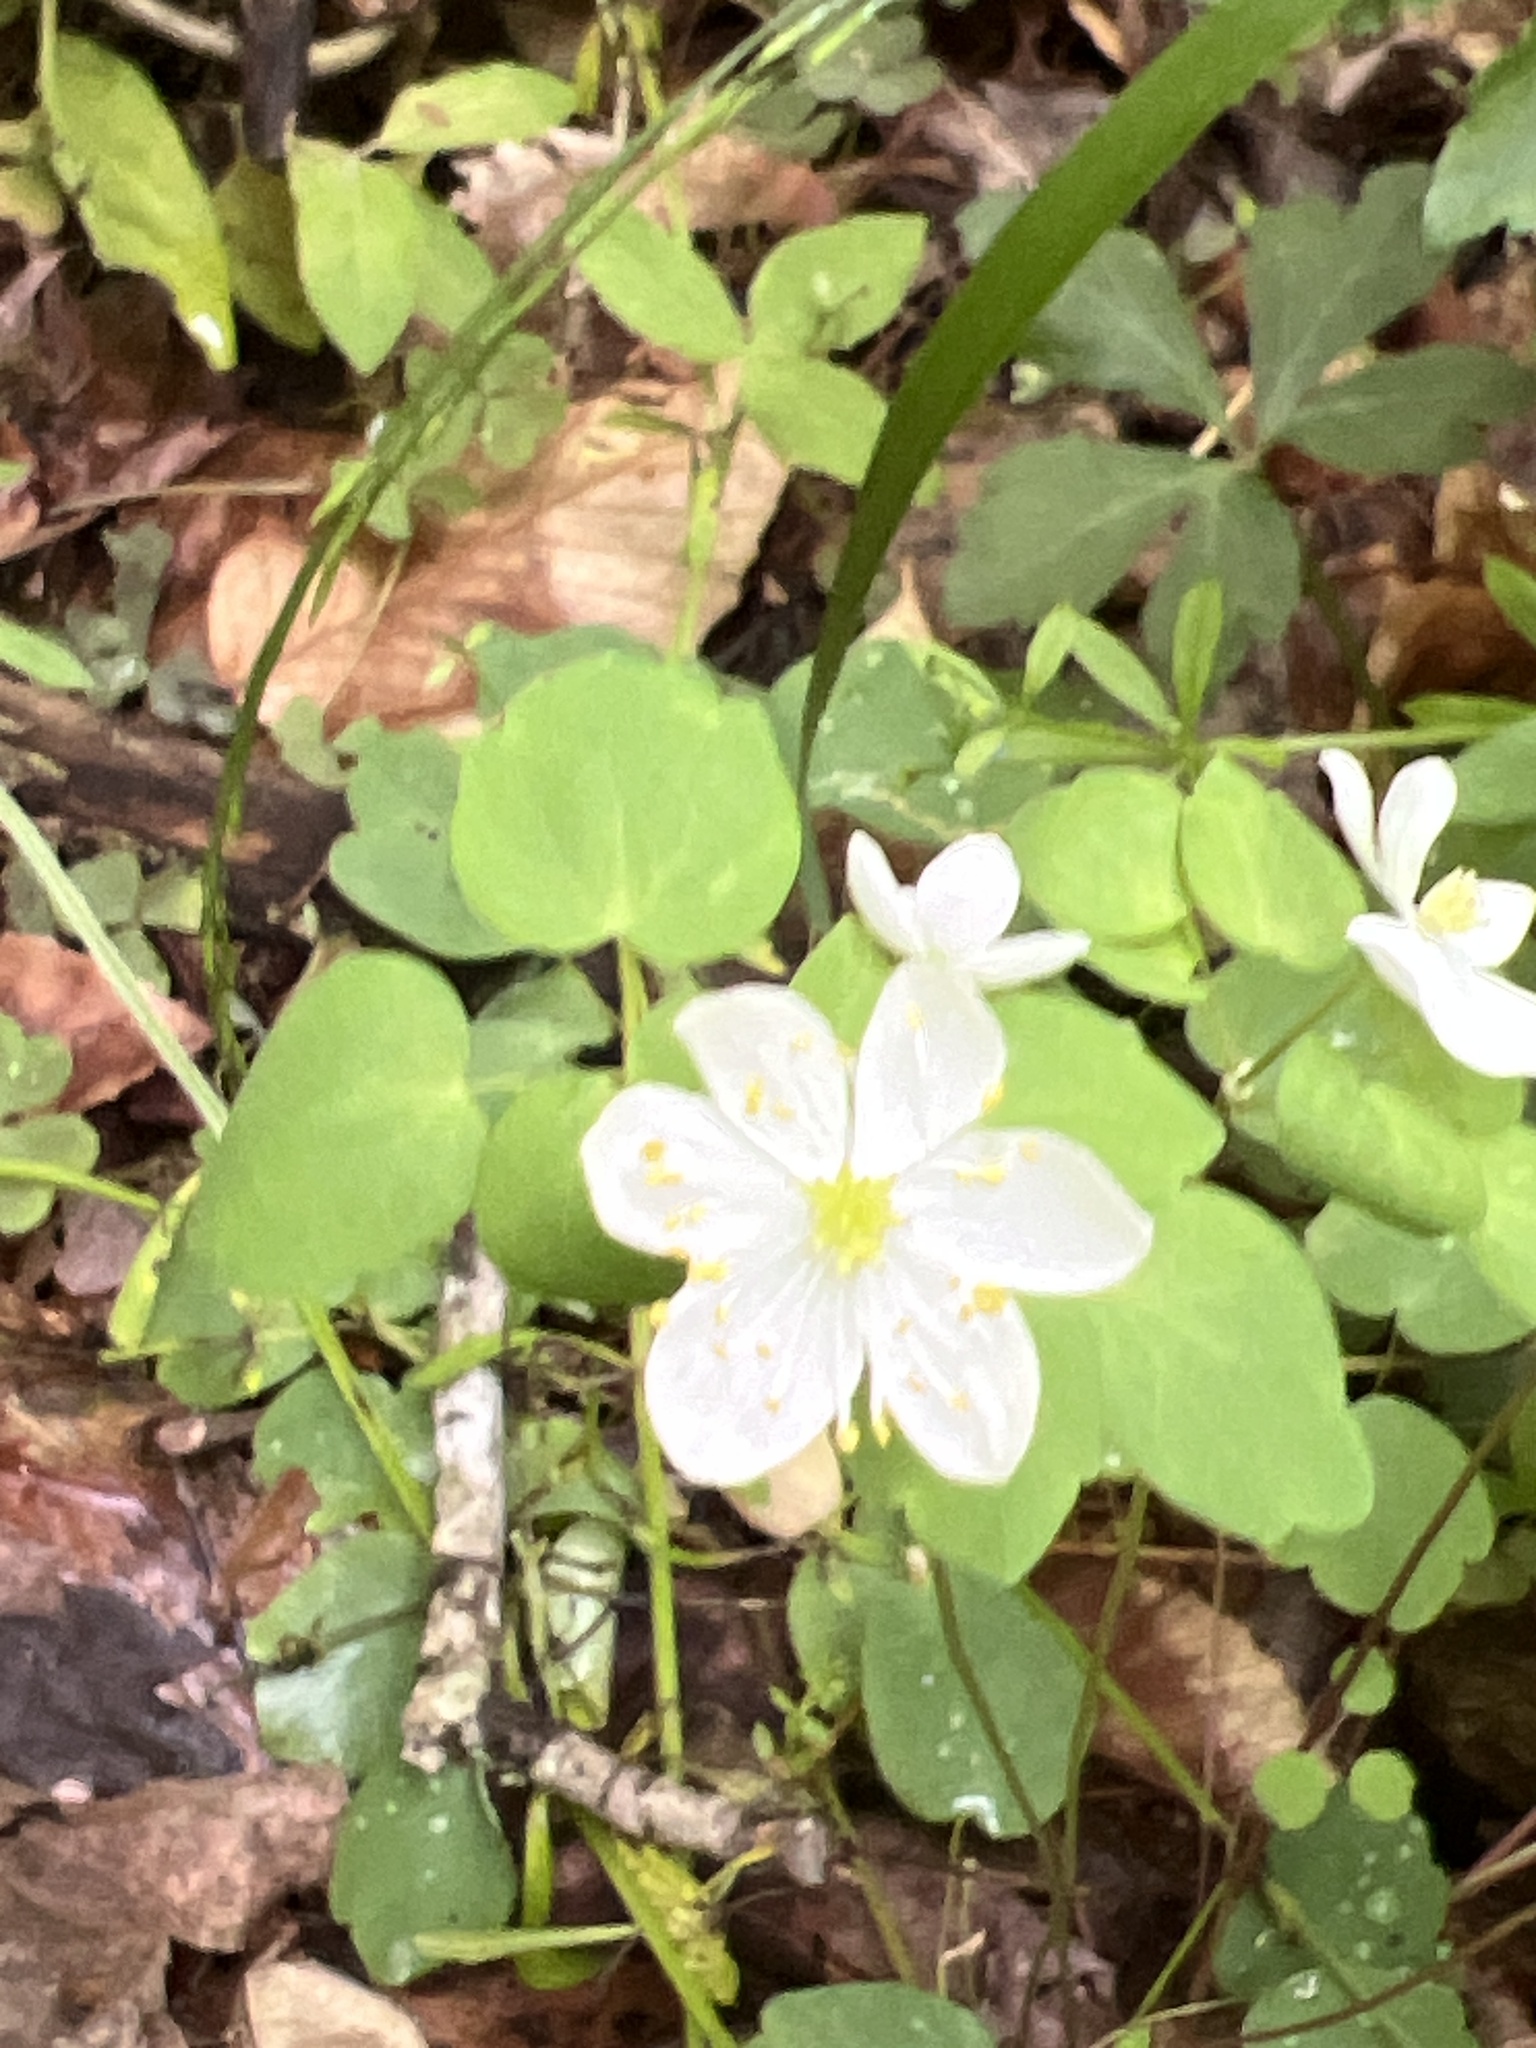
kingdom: Plantae
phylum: Tracheophyta
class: Magnoliopsida
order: Ranunculales
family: Ranunculaceae
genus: Thalictrum
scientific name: Thalictrum thalictroides
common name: Rue-anemone
